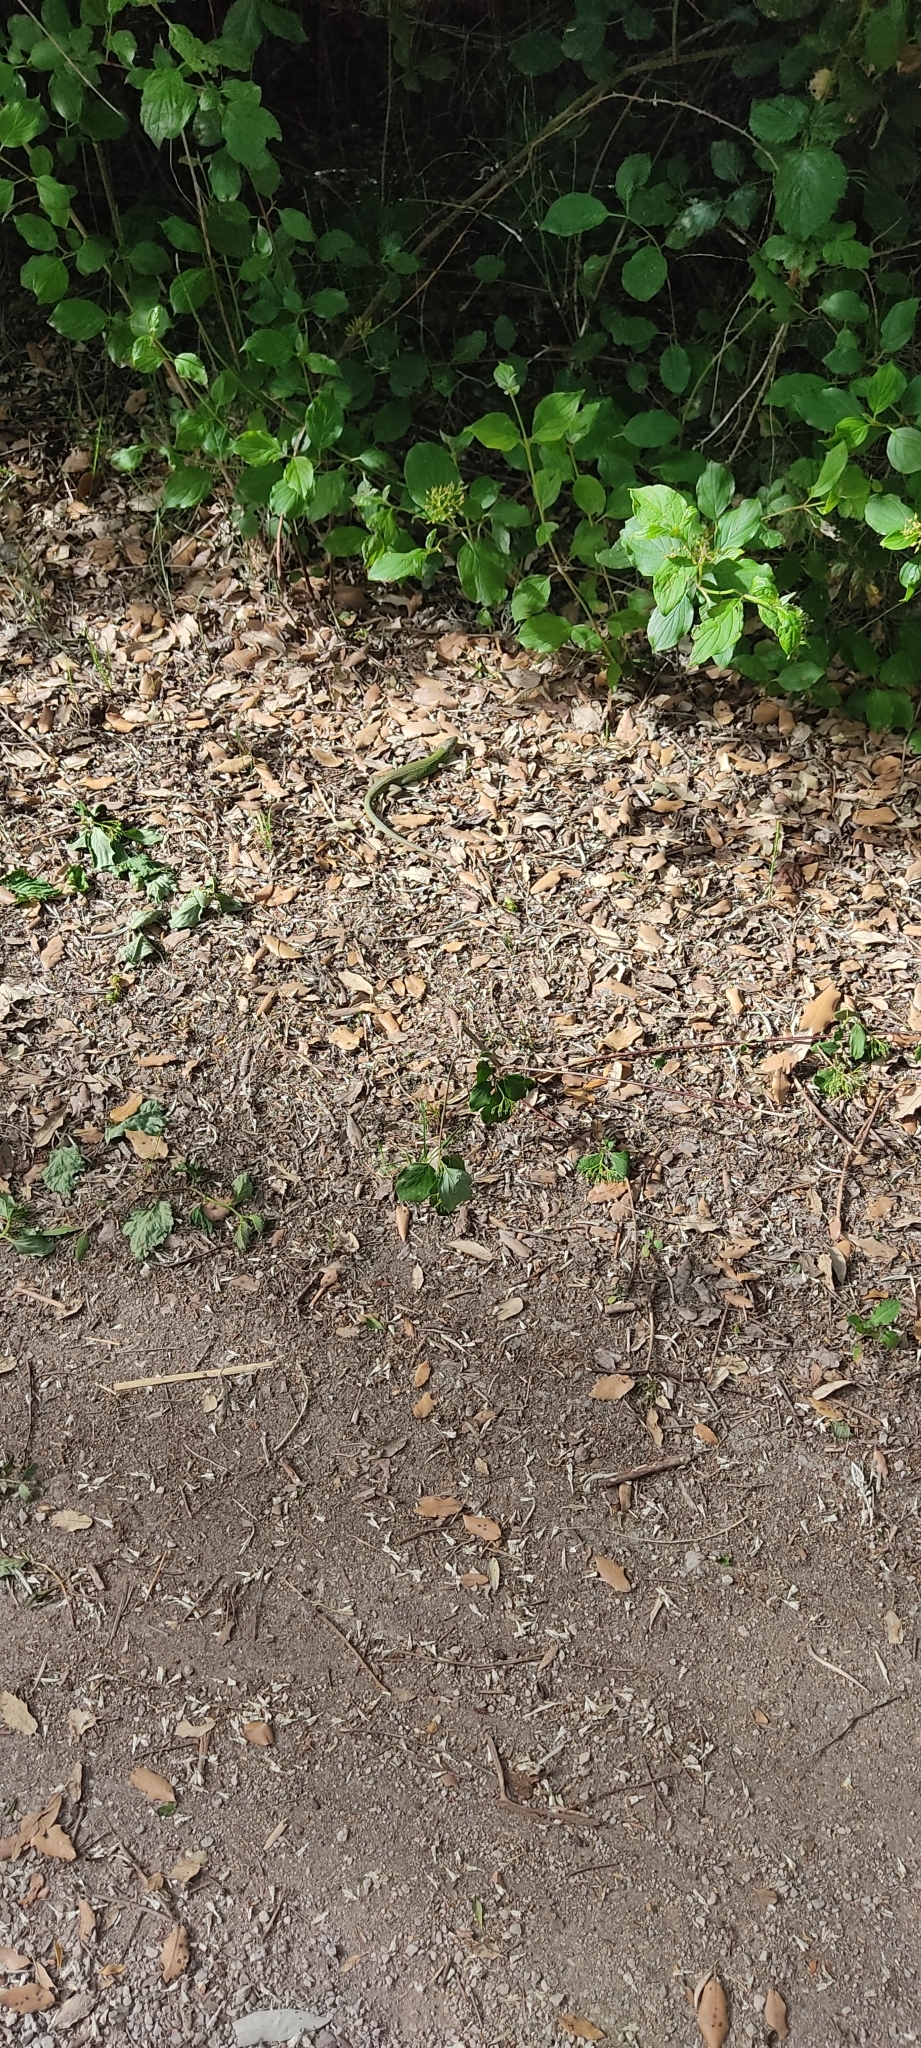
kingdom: Animalia
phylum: Chordata
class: Squamata
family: Lacertidae
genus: Lacerta
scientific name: Lacerta bilineata
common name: Western green lizard
